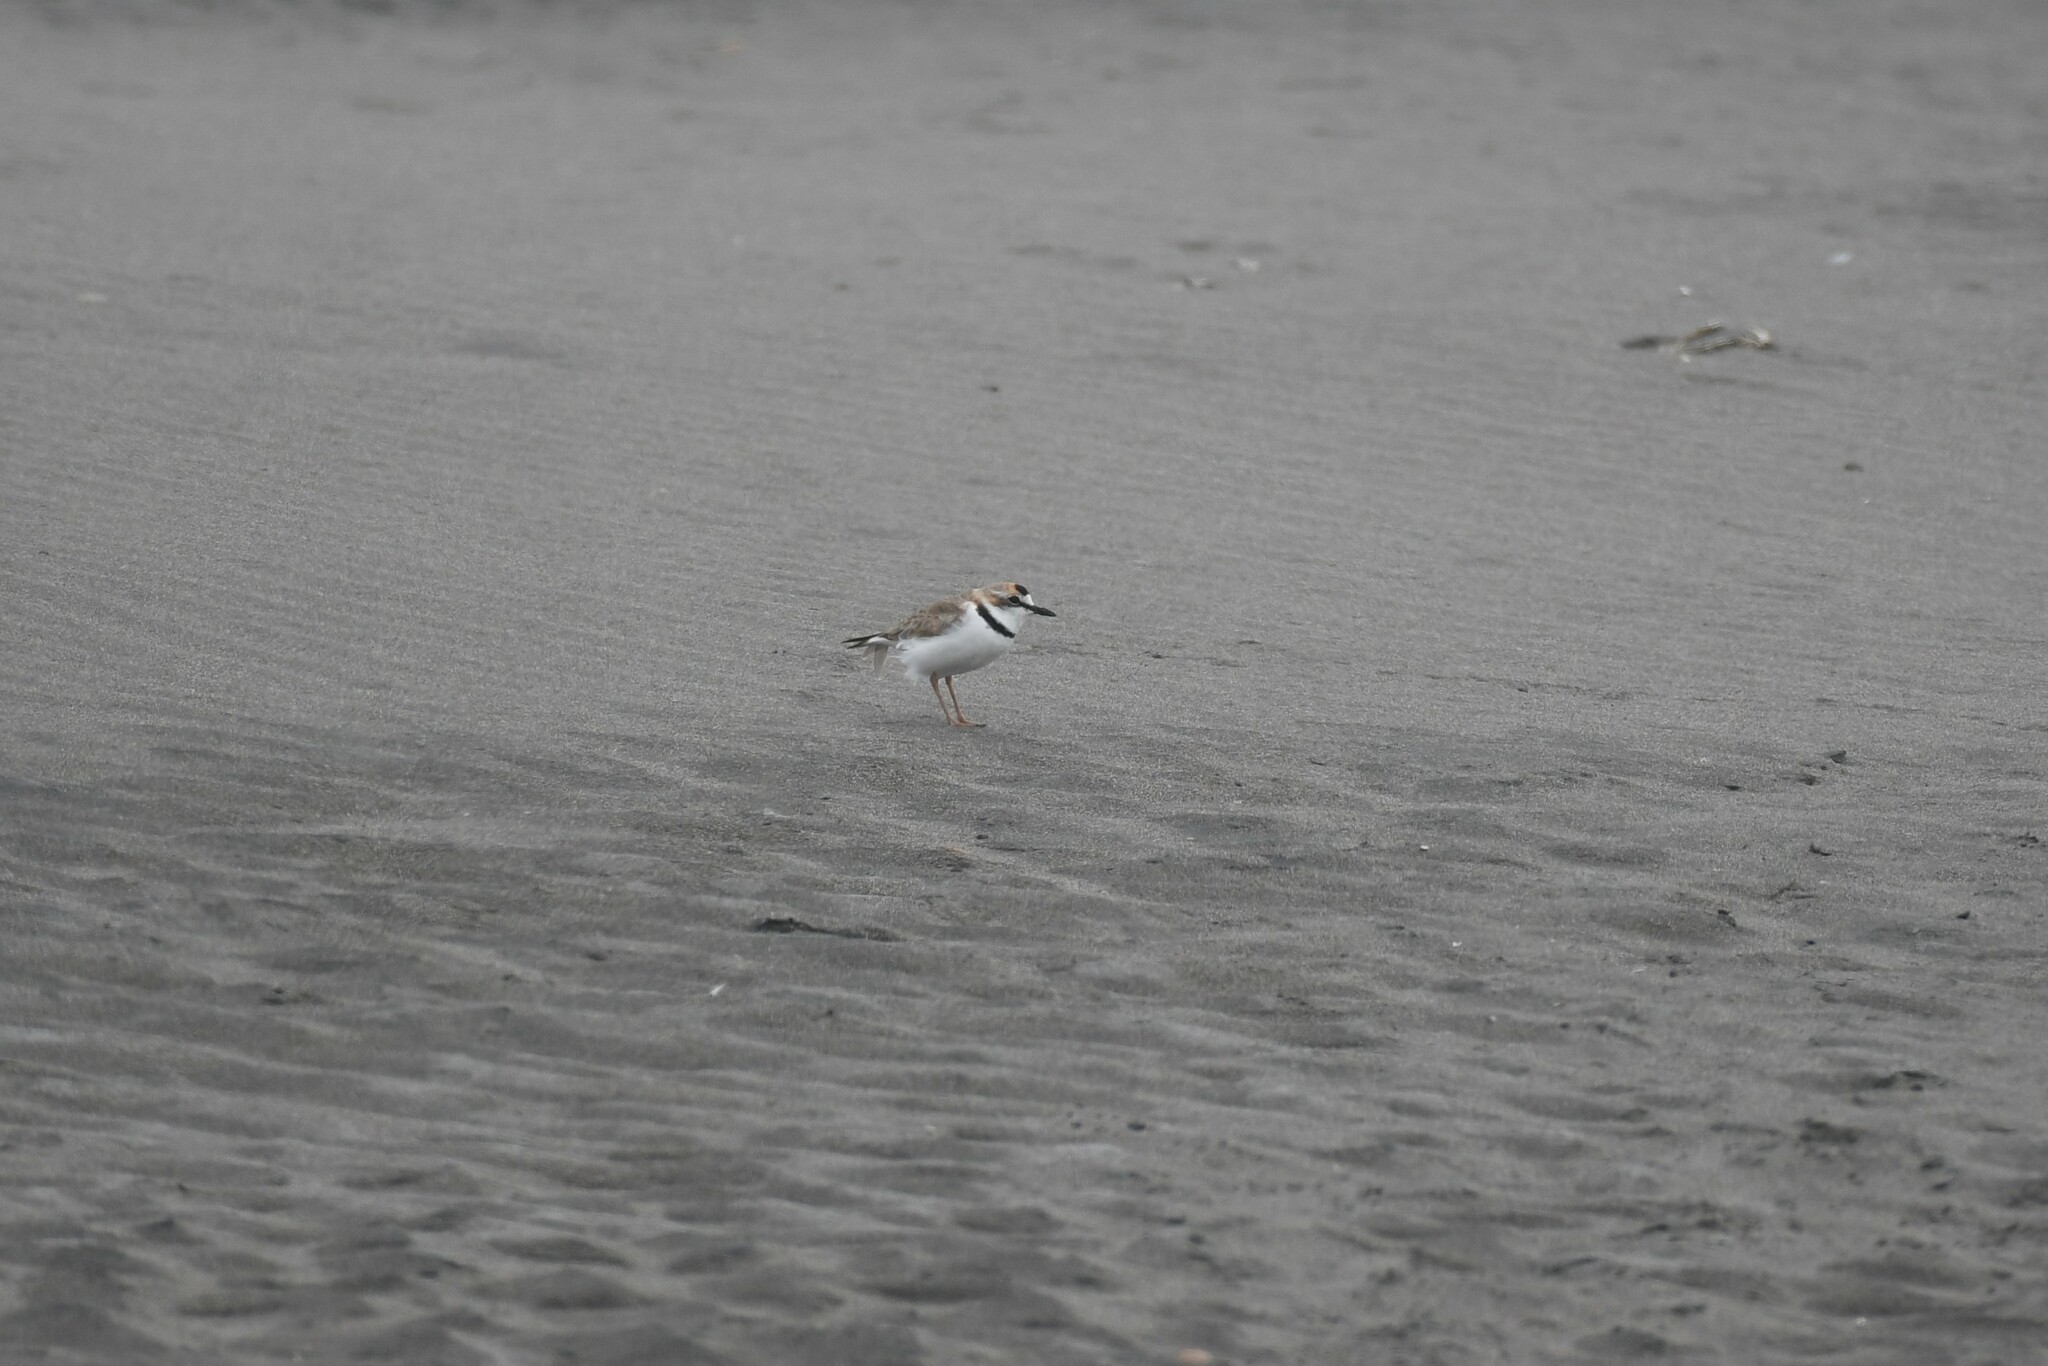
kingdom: Animalia
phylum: Chordata
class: Aves
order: Charadriiformes
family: Charadriidae
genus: Anarhynchus
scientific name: Anarhynchus
